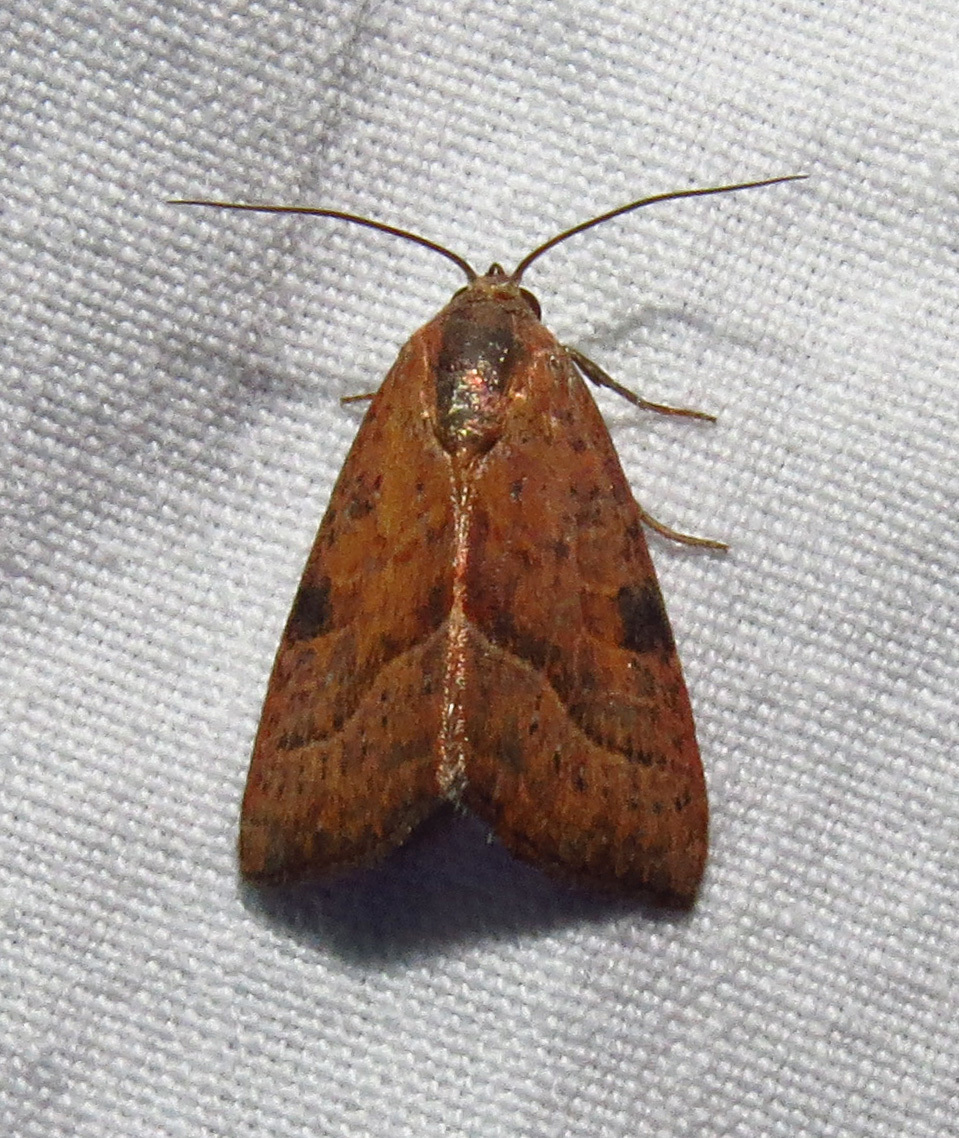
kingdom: Animalia
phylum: Arthropoda
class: Insecta
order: Lepidoptera
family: Noctuidae
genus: Galgula
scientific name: Galgula partita
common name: Wedgeling
